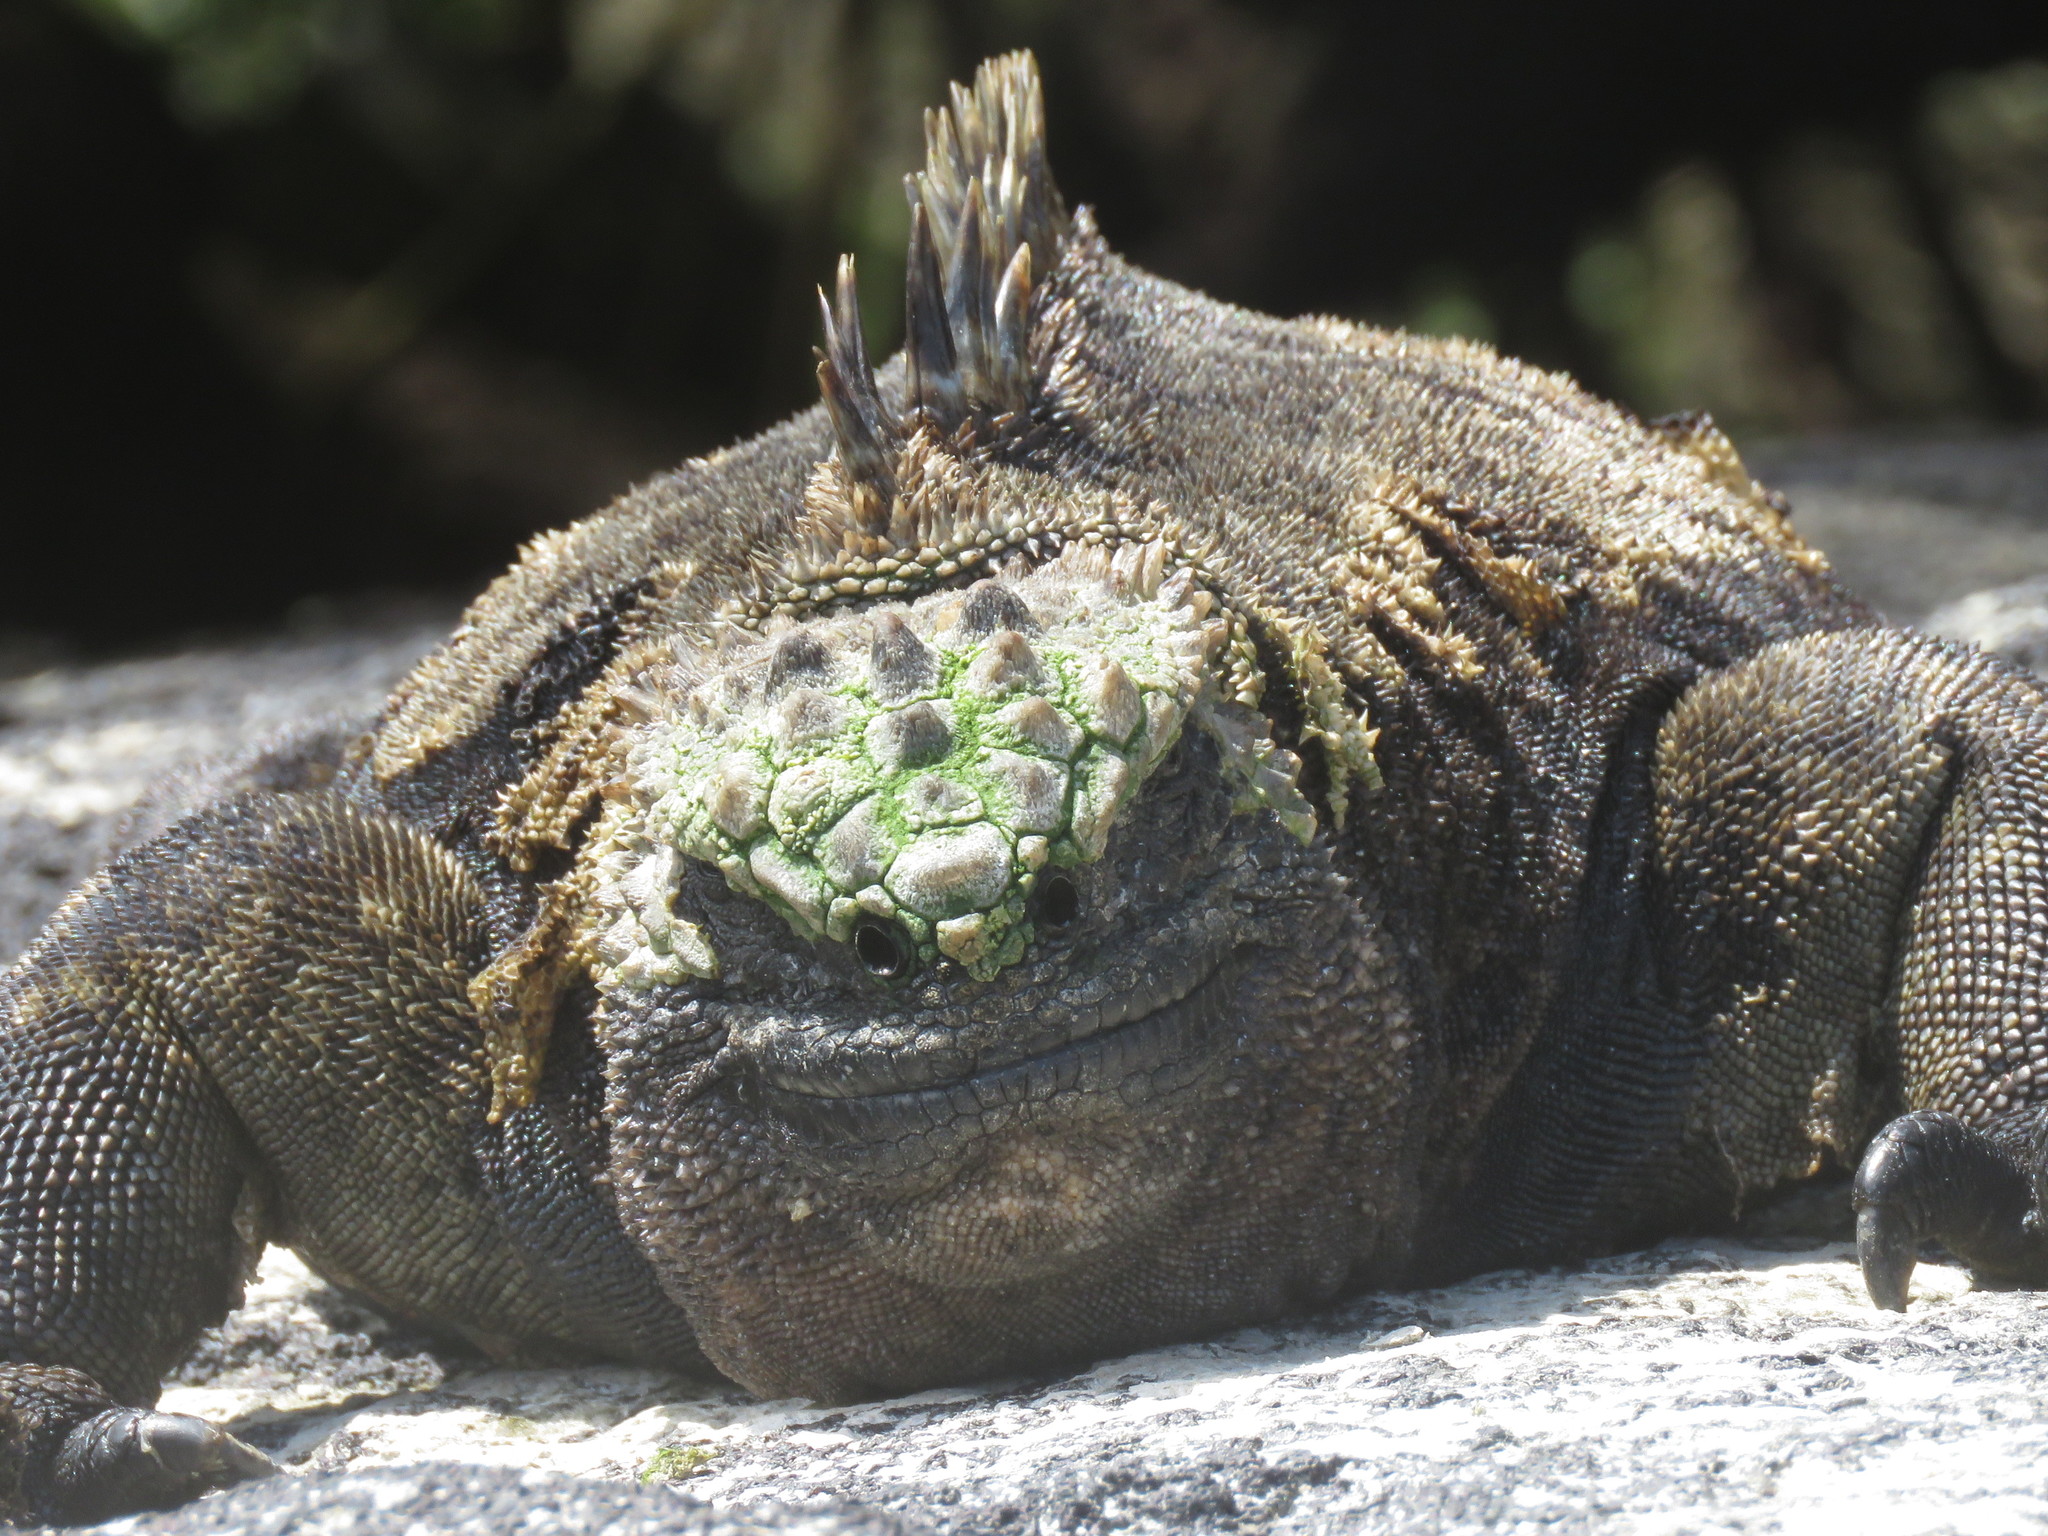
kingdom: Animalia
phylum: Chordata
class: Squamata
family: Iguanidae
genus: Amblyrhynchus
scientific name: Amblyrhynchus cristatus
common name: Marine iguana
